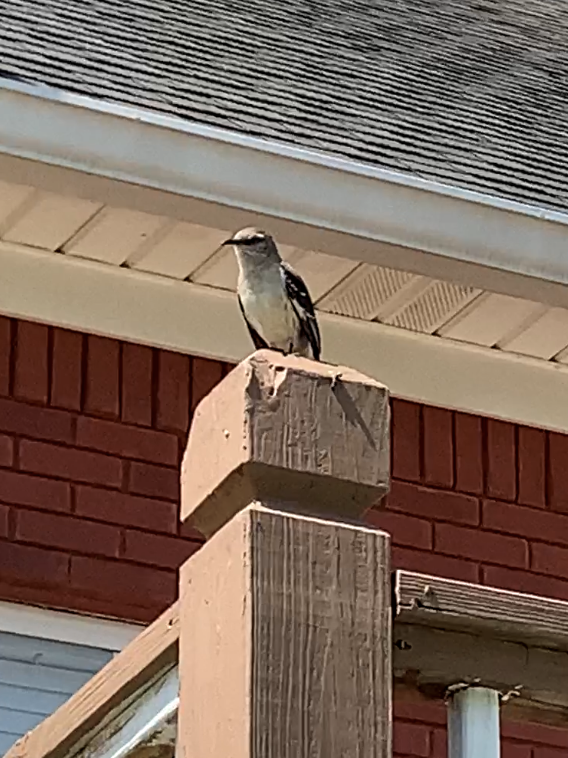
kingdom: Animalia
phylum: Chordata
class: Aves
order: Passeriformes
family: Mimidae
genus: Mimus
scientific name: Mimus polyglottos
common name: Northern mockingbird
